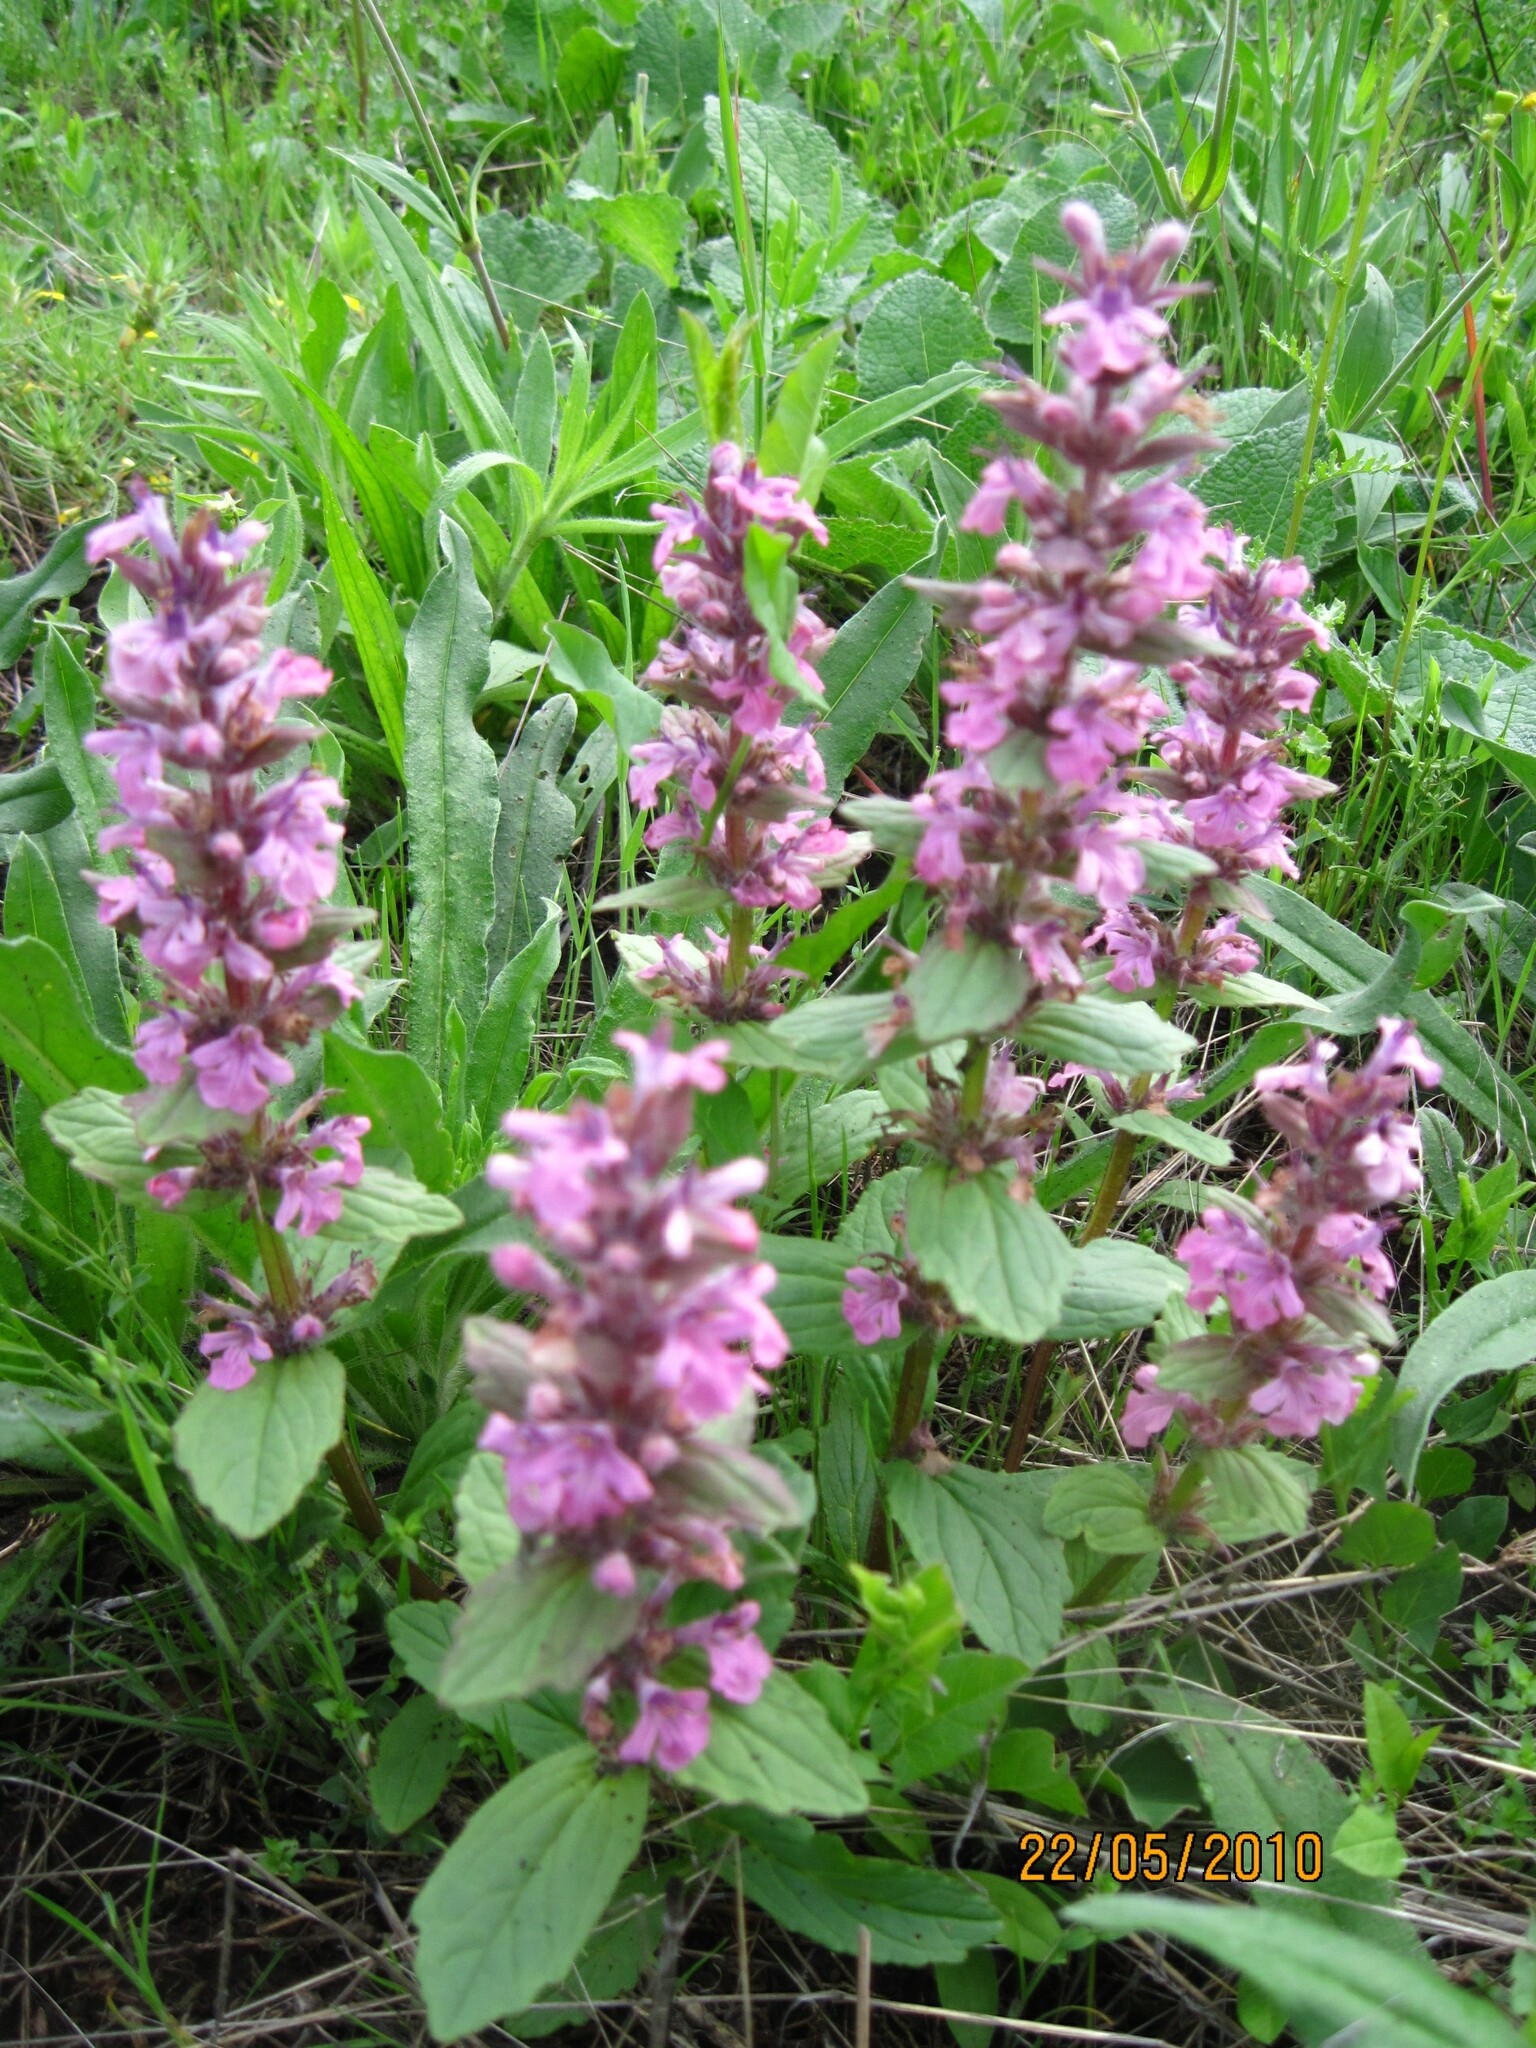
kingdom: Plantae
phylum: Tracheophyta
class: Magnoliopsida
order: Lamiales
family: Lamiaceae
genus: Ajuga
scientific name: Ajuga genevensis
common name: Blue bugle
